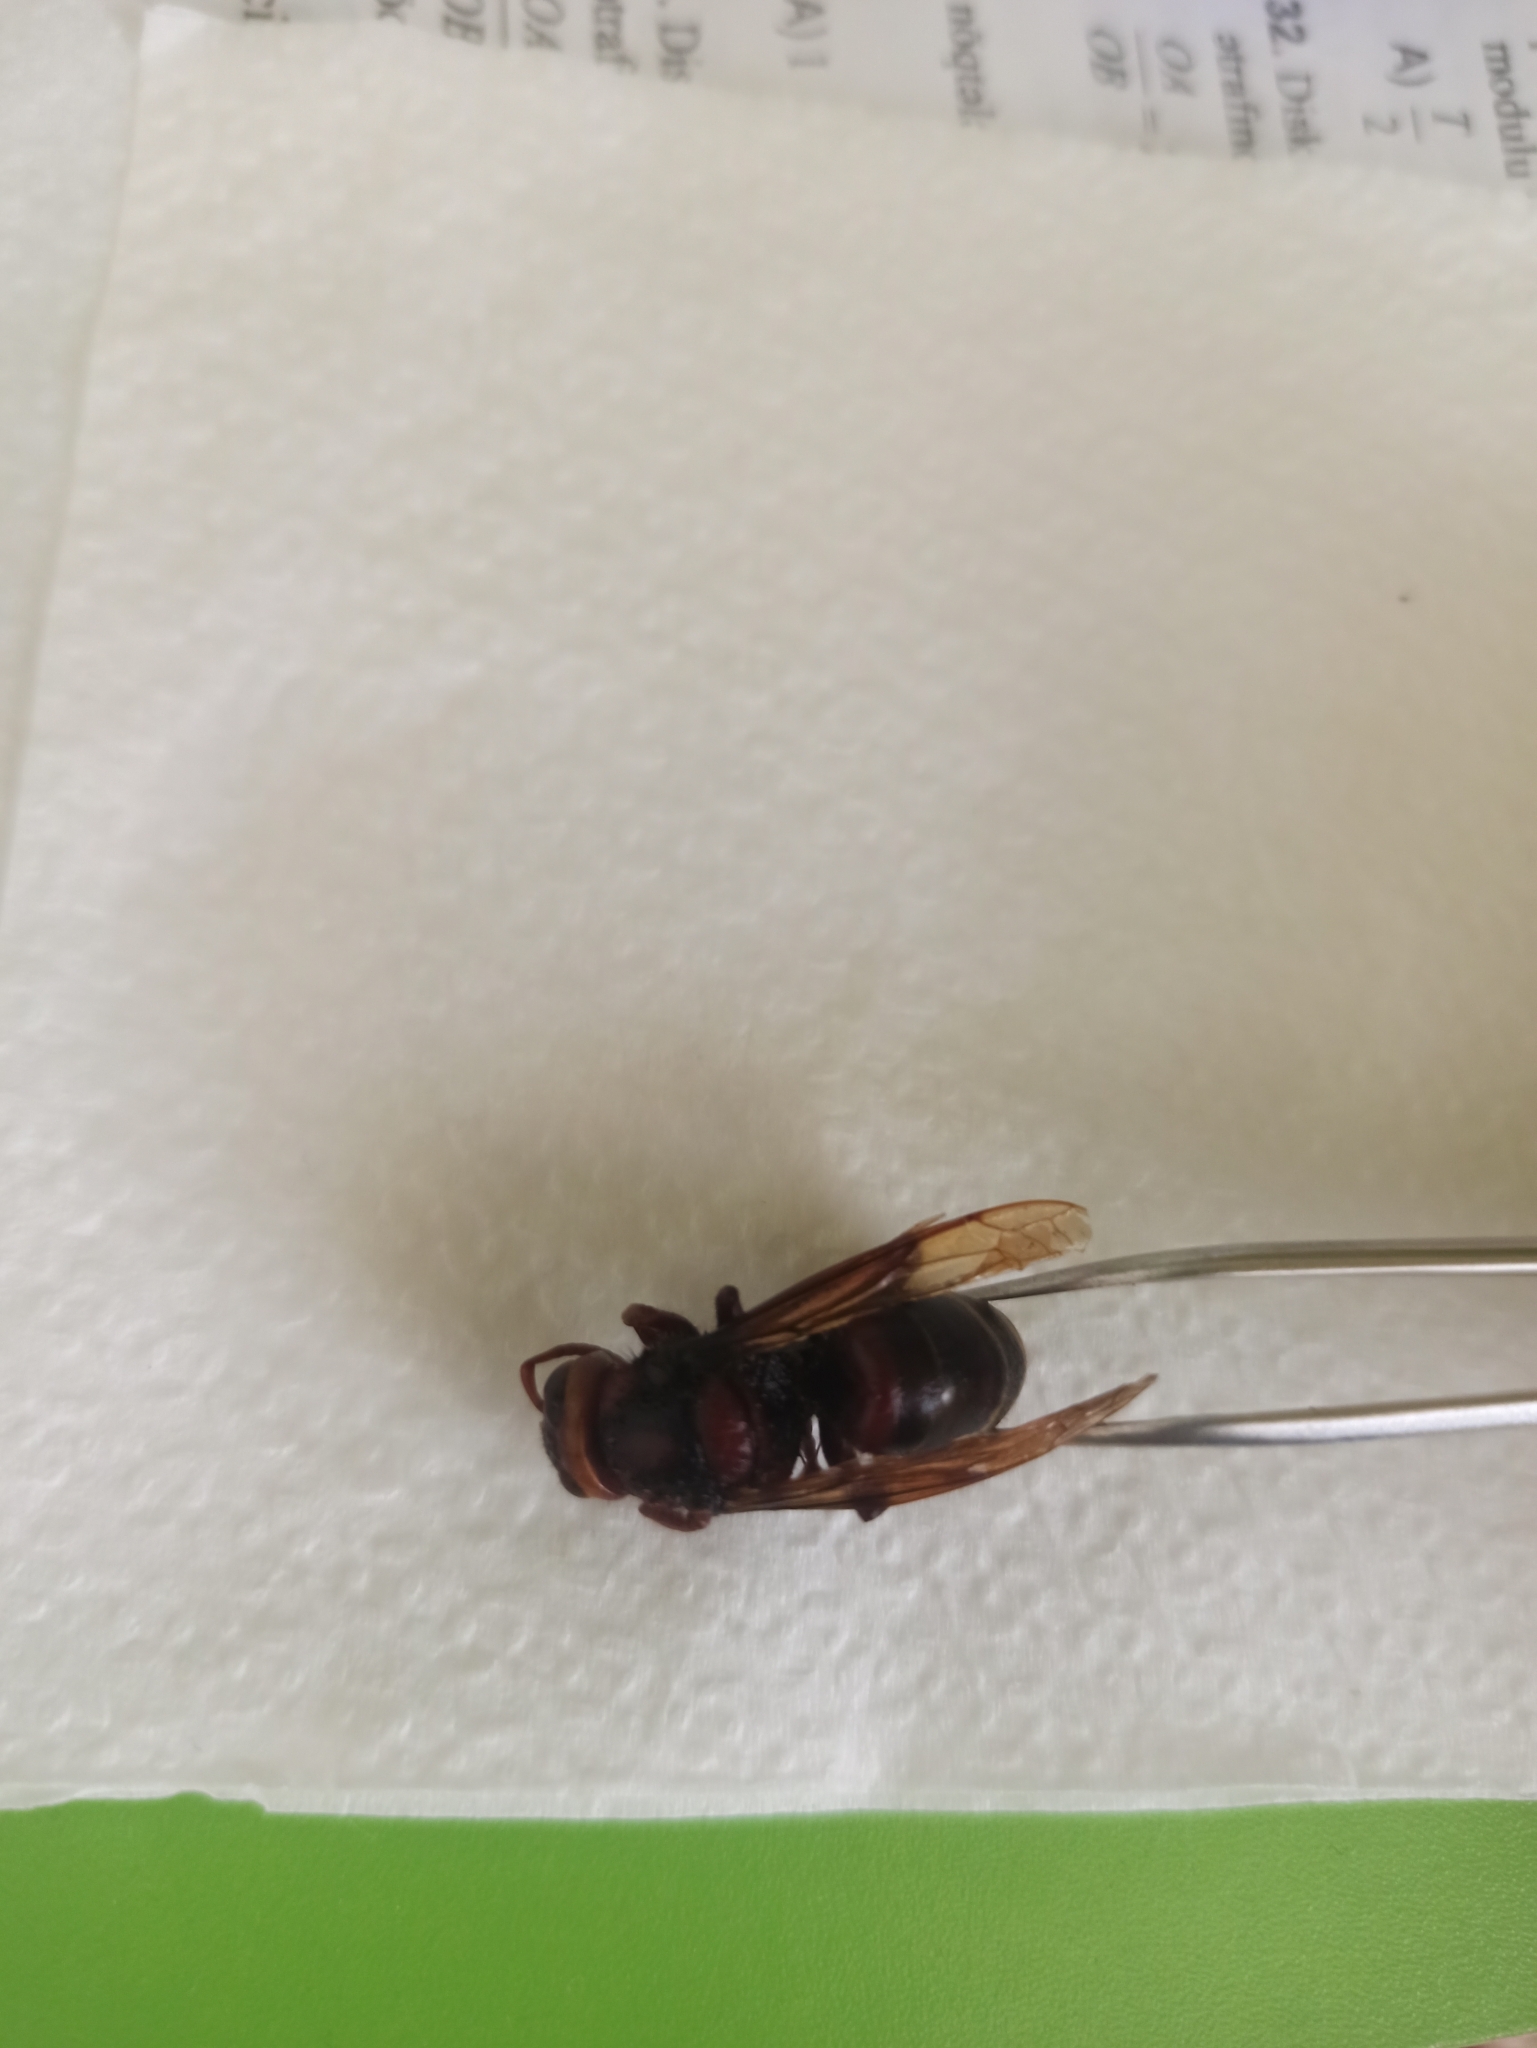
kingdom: Animalia
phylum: Arthropoda
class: Insecta
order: Hymenoptera
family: Vespidae
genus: Vespa
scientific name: Vespa crabro
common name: Hornet
